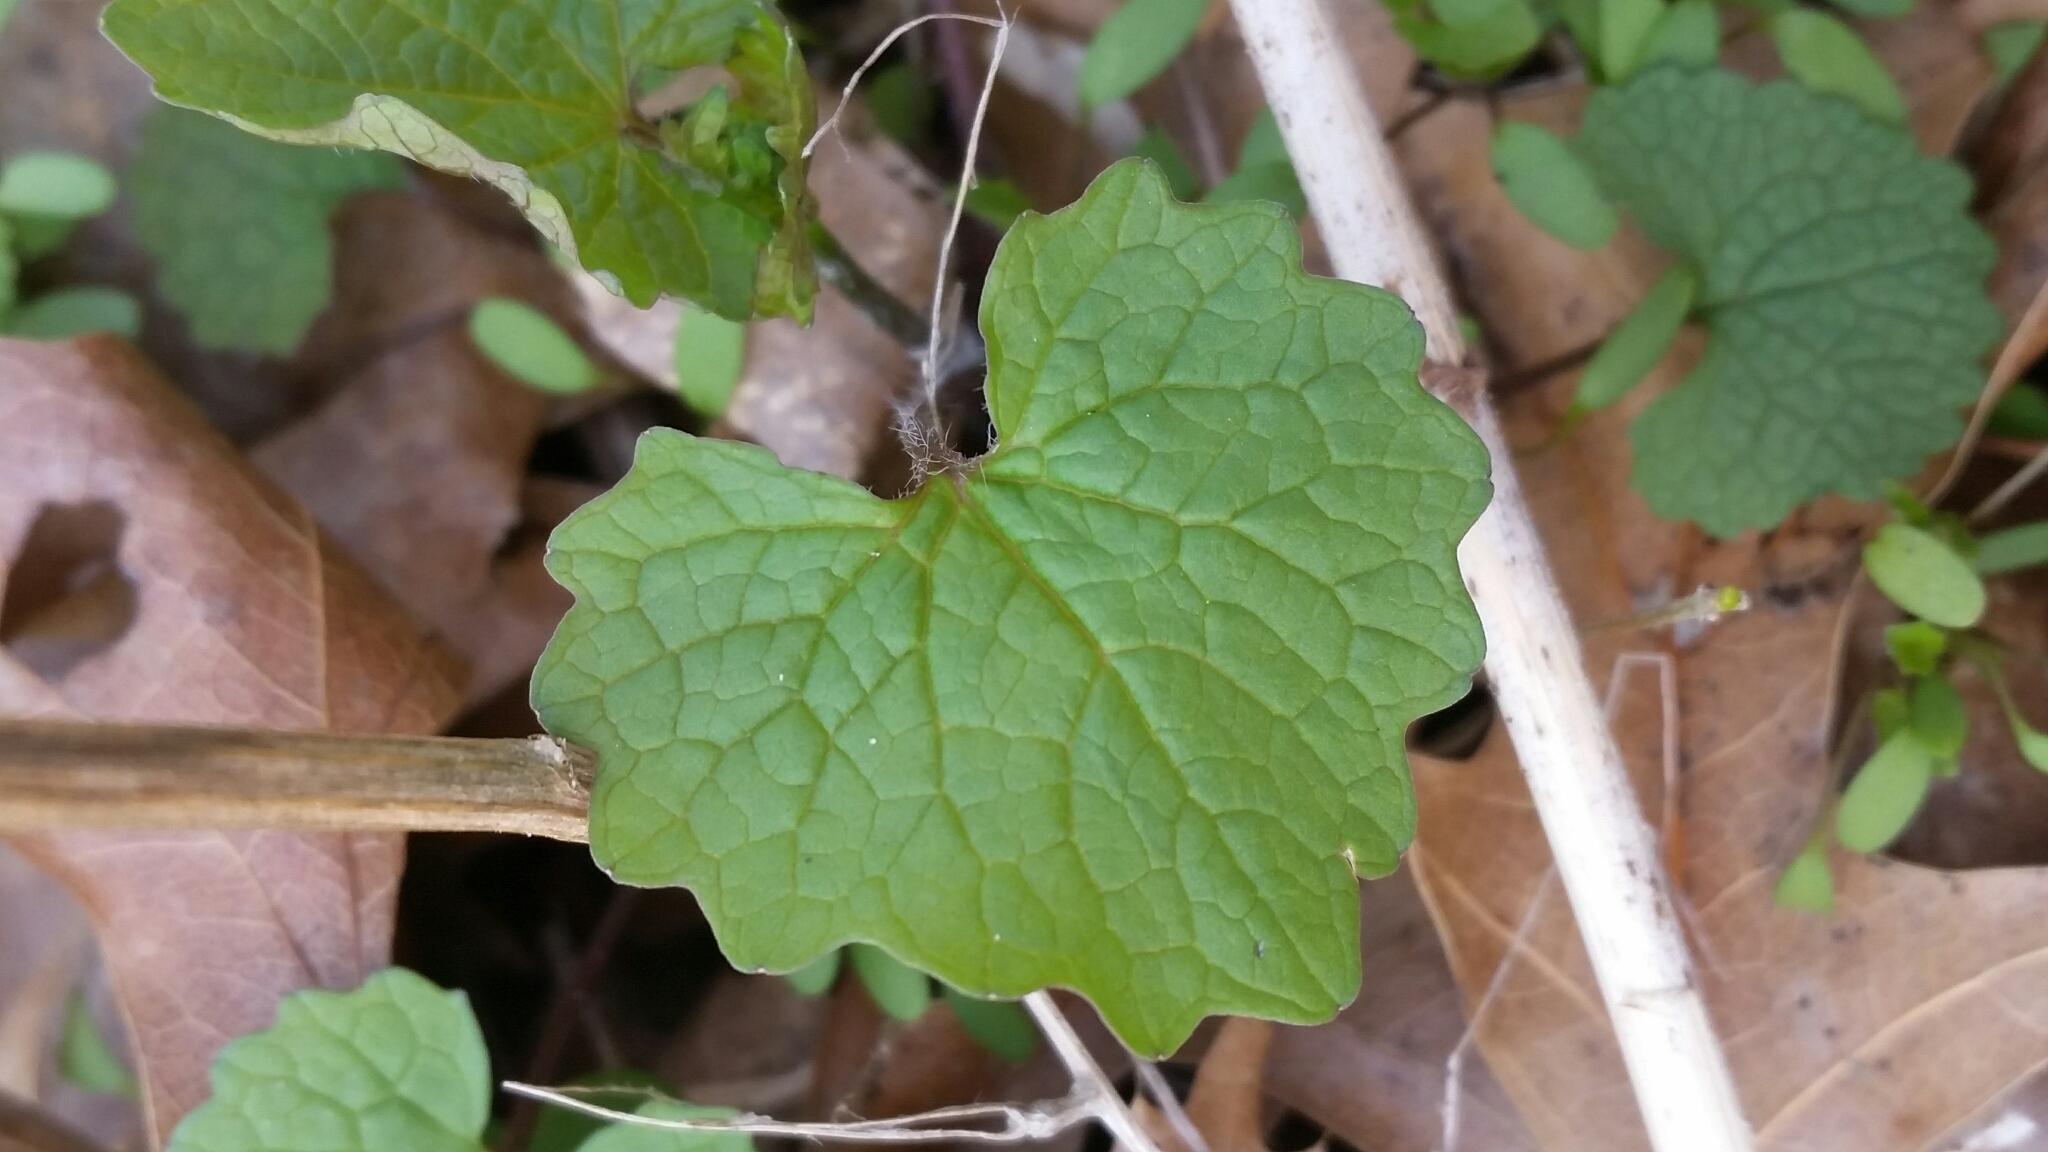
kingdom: Plantae
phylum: Tracheophyta
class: Magnoliopsida
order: Brassicales
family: Brassicaceae
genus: Alliaria
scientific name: Alliaria petiolata
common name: Garlic mustard
